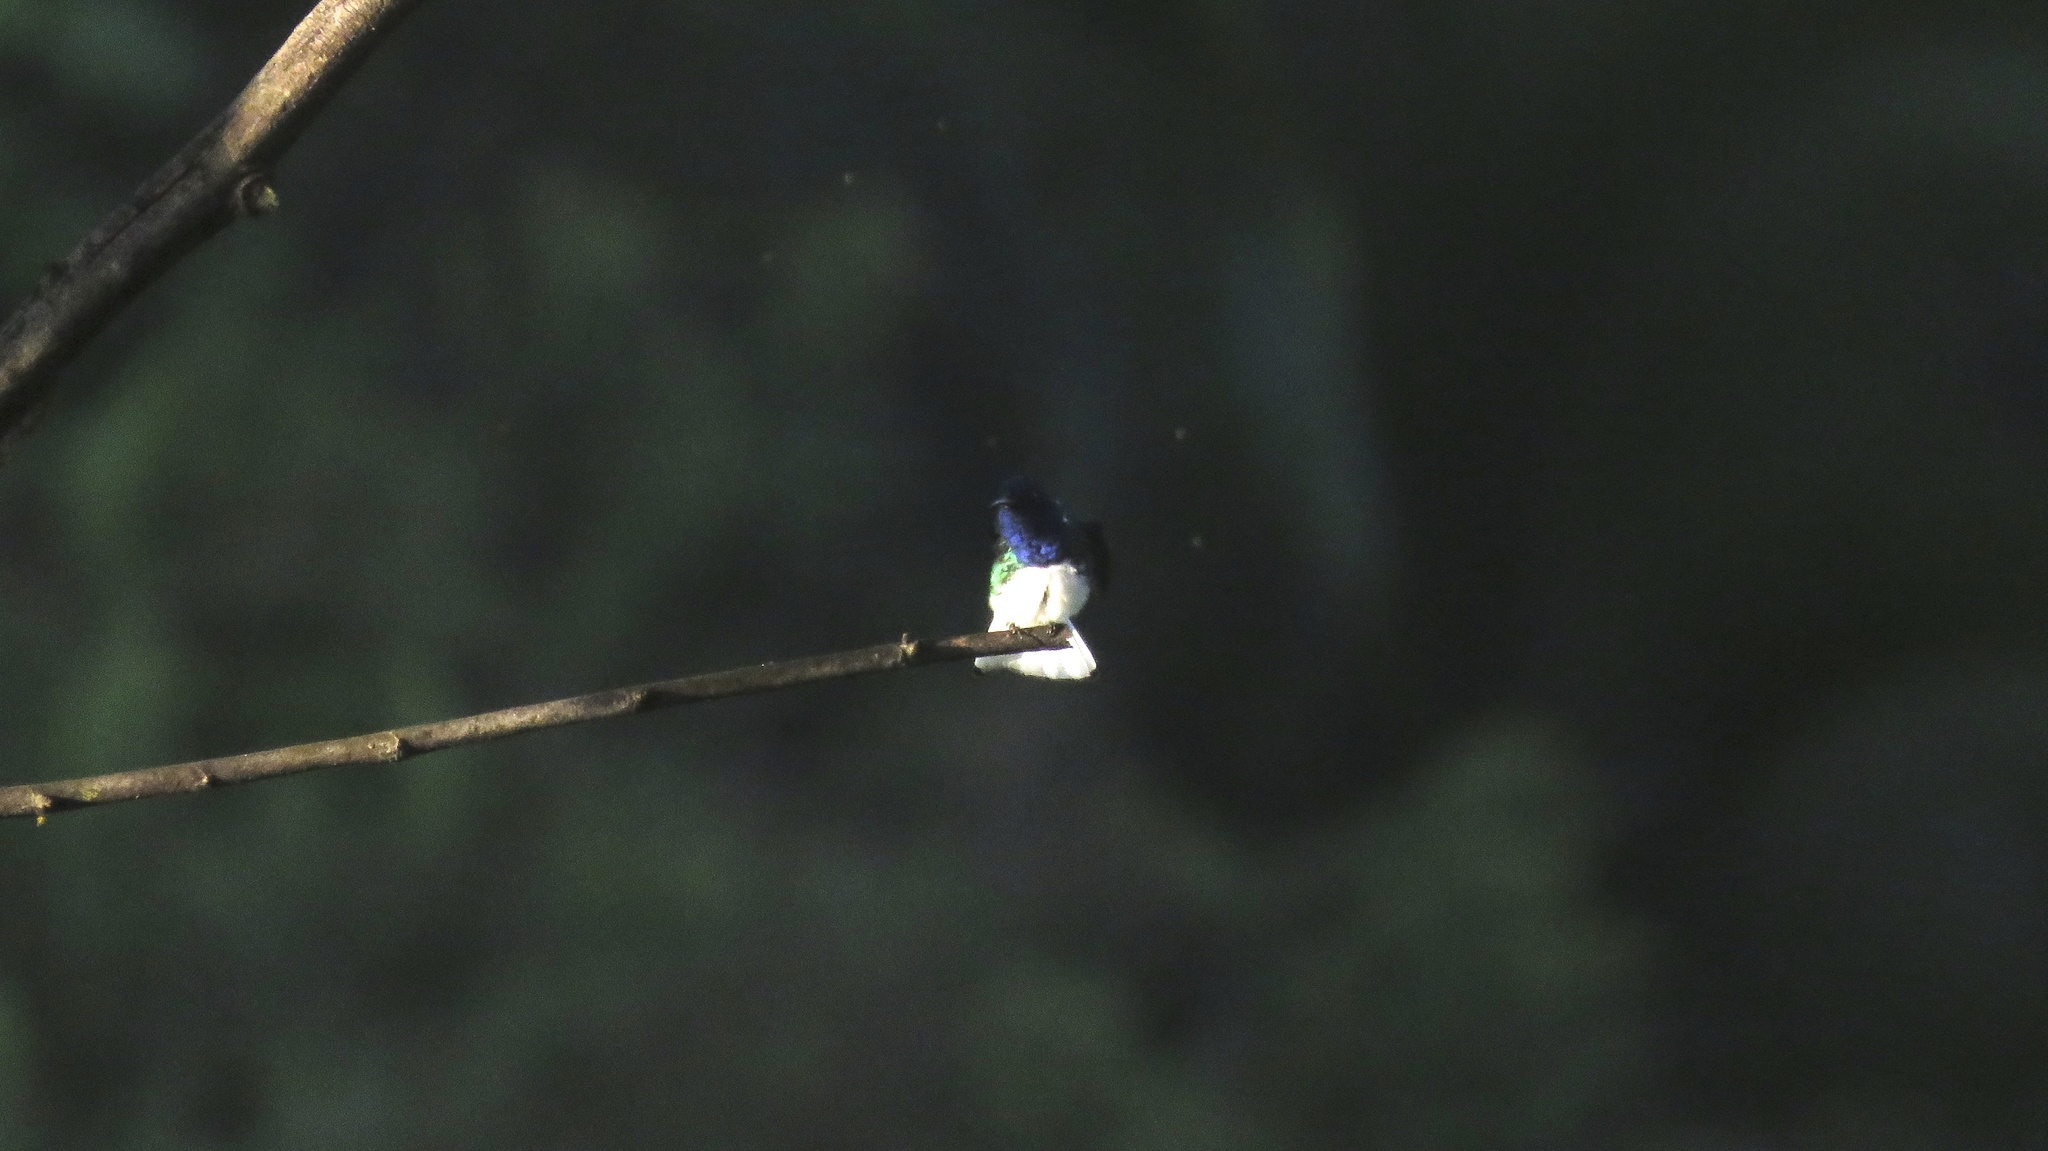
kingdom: Animalia
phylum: Chordata
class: Aves
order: Apodiformes
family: Trochilidae
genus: Florisuga
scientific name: Florisuga mellivora
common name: White-necked jacobin
